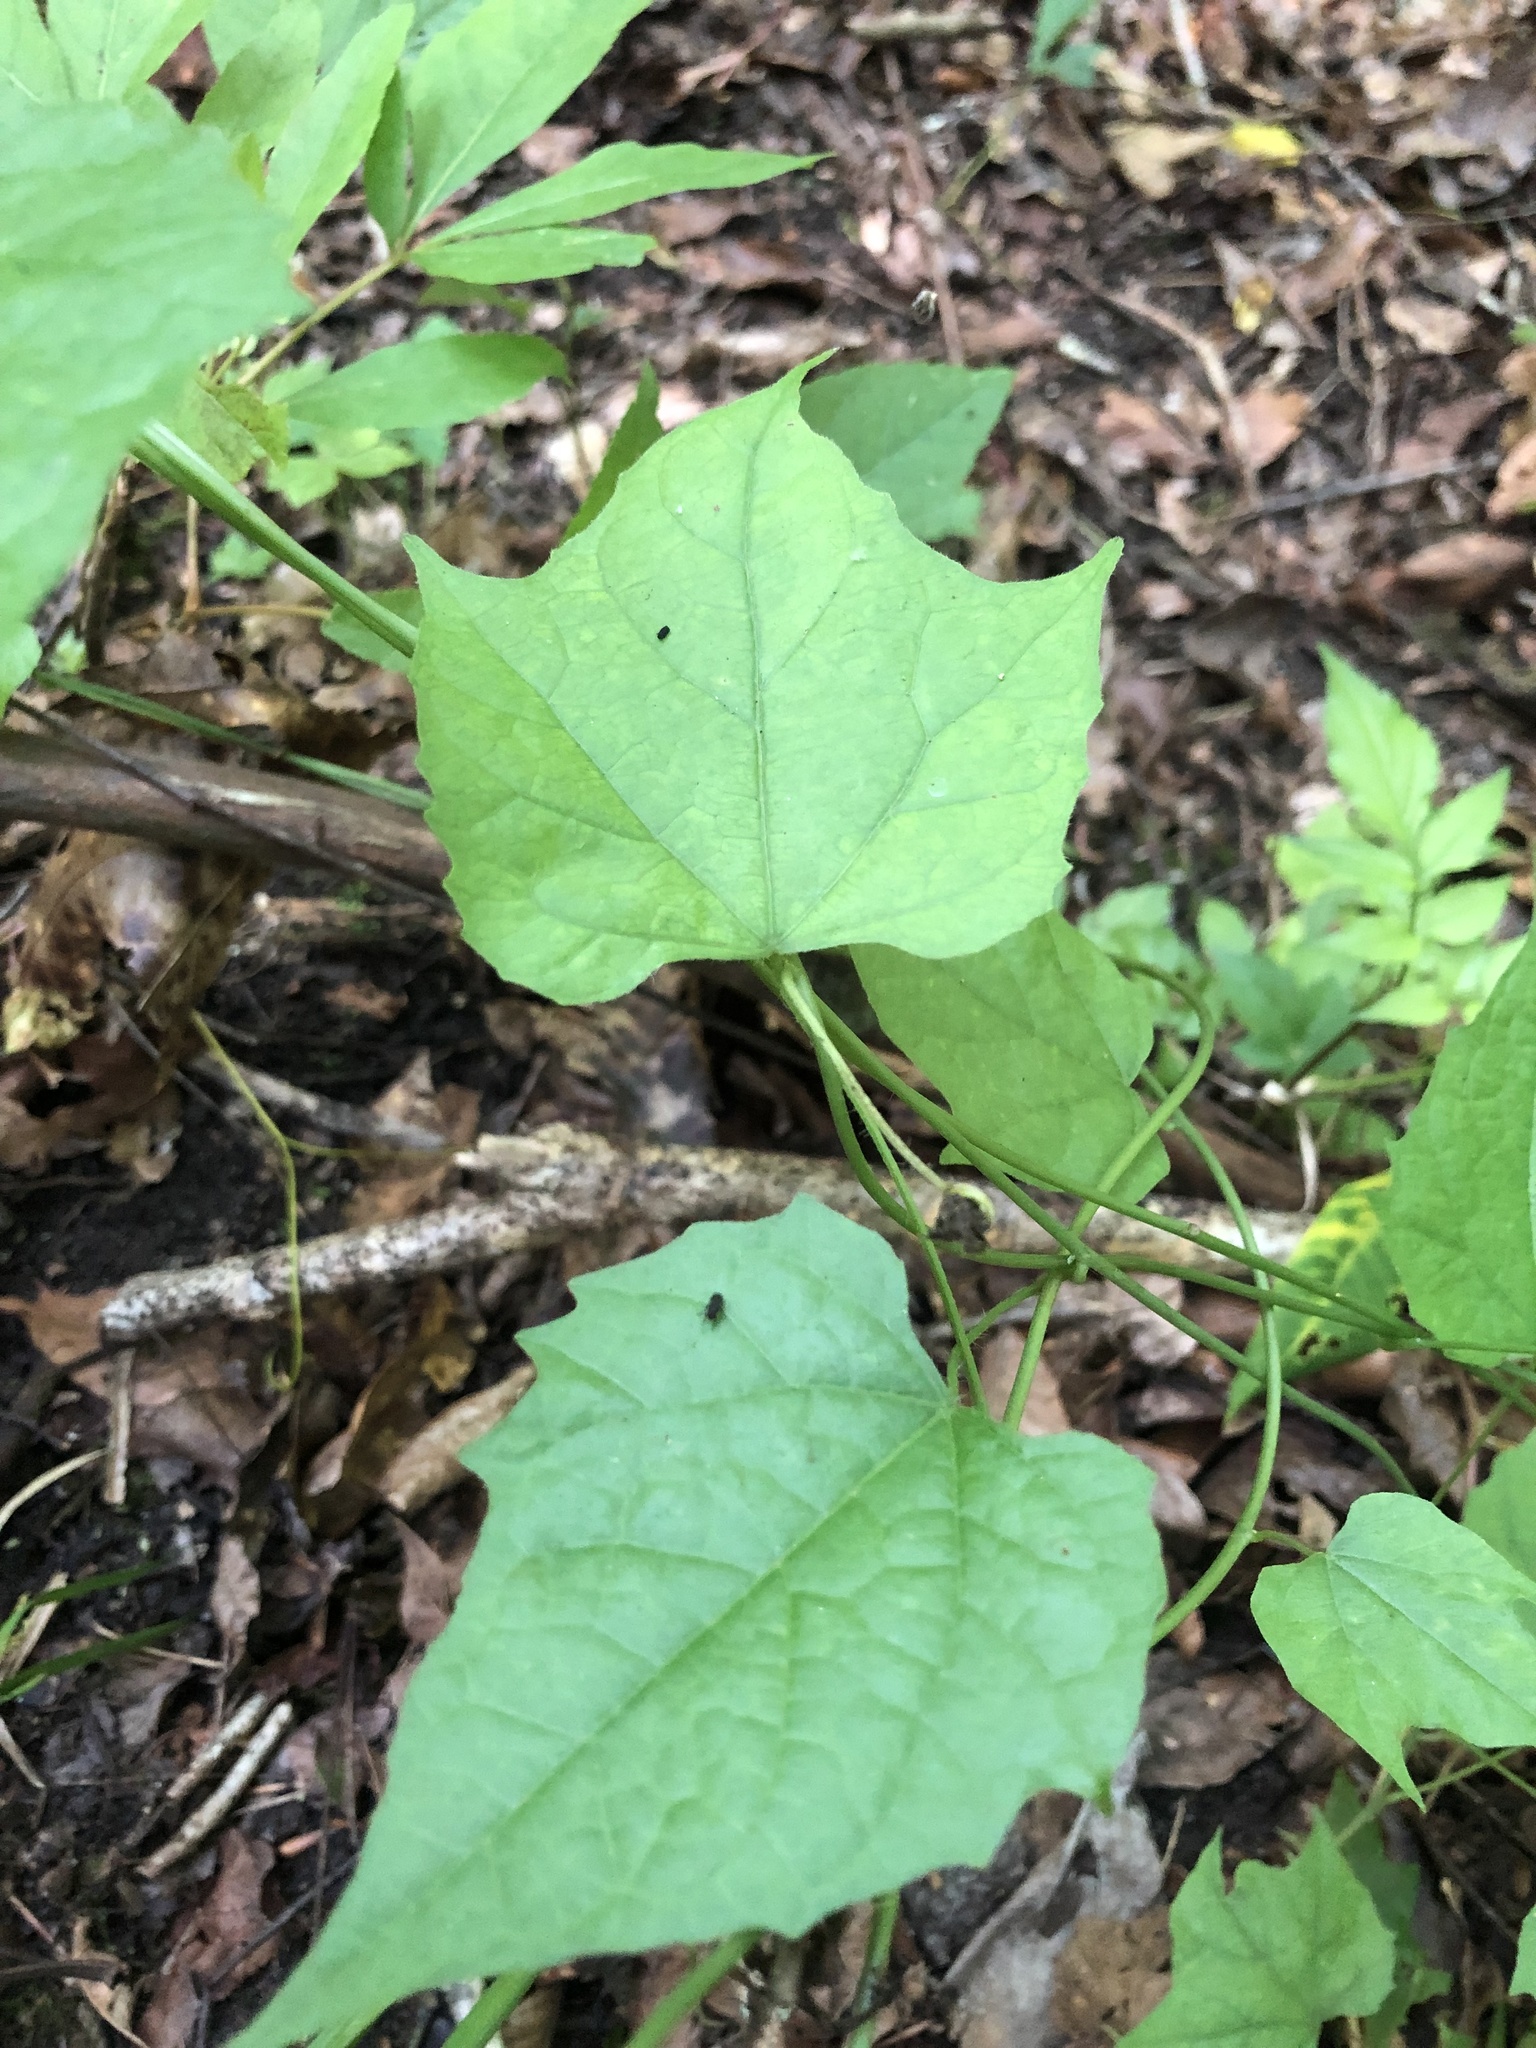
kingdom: Plantae
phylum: Tracheophyta
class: Magnoliopsida
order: Ranunculales
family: Menispermaceae
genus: Calycocarpum
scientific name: Calycocarpum lyonii
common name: Cupseed
